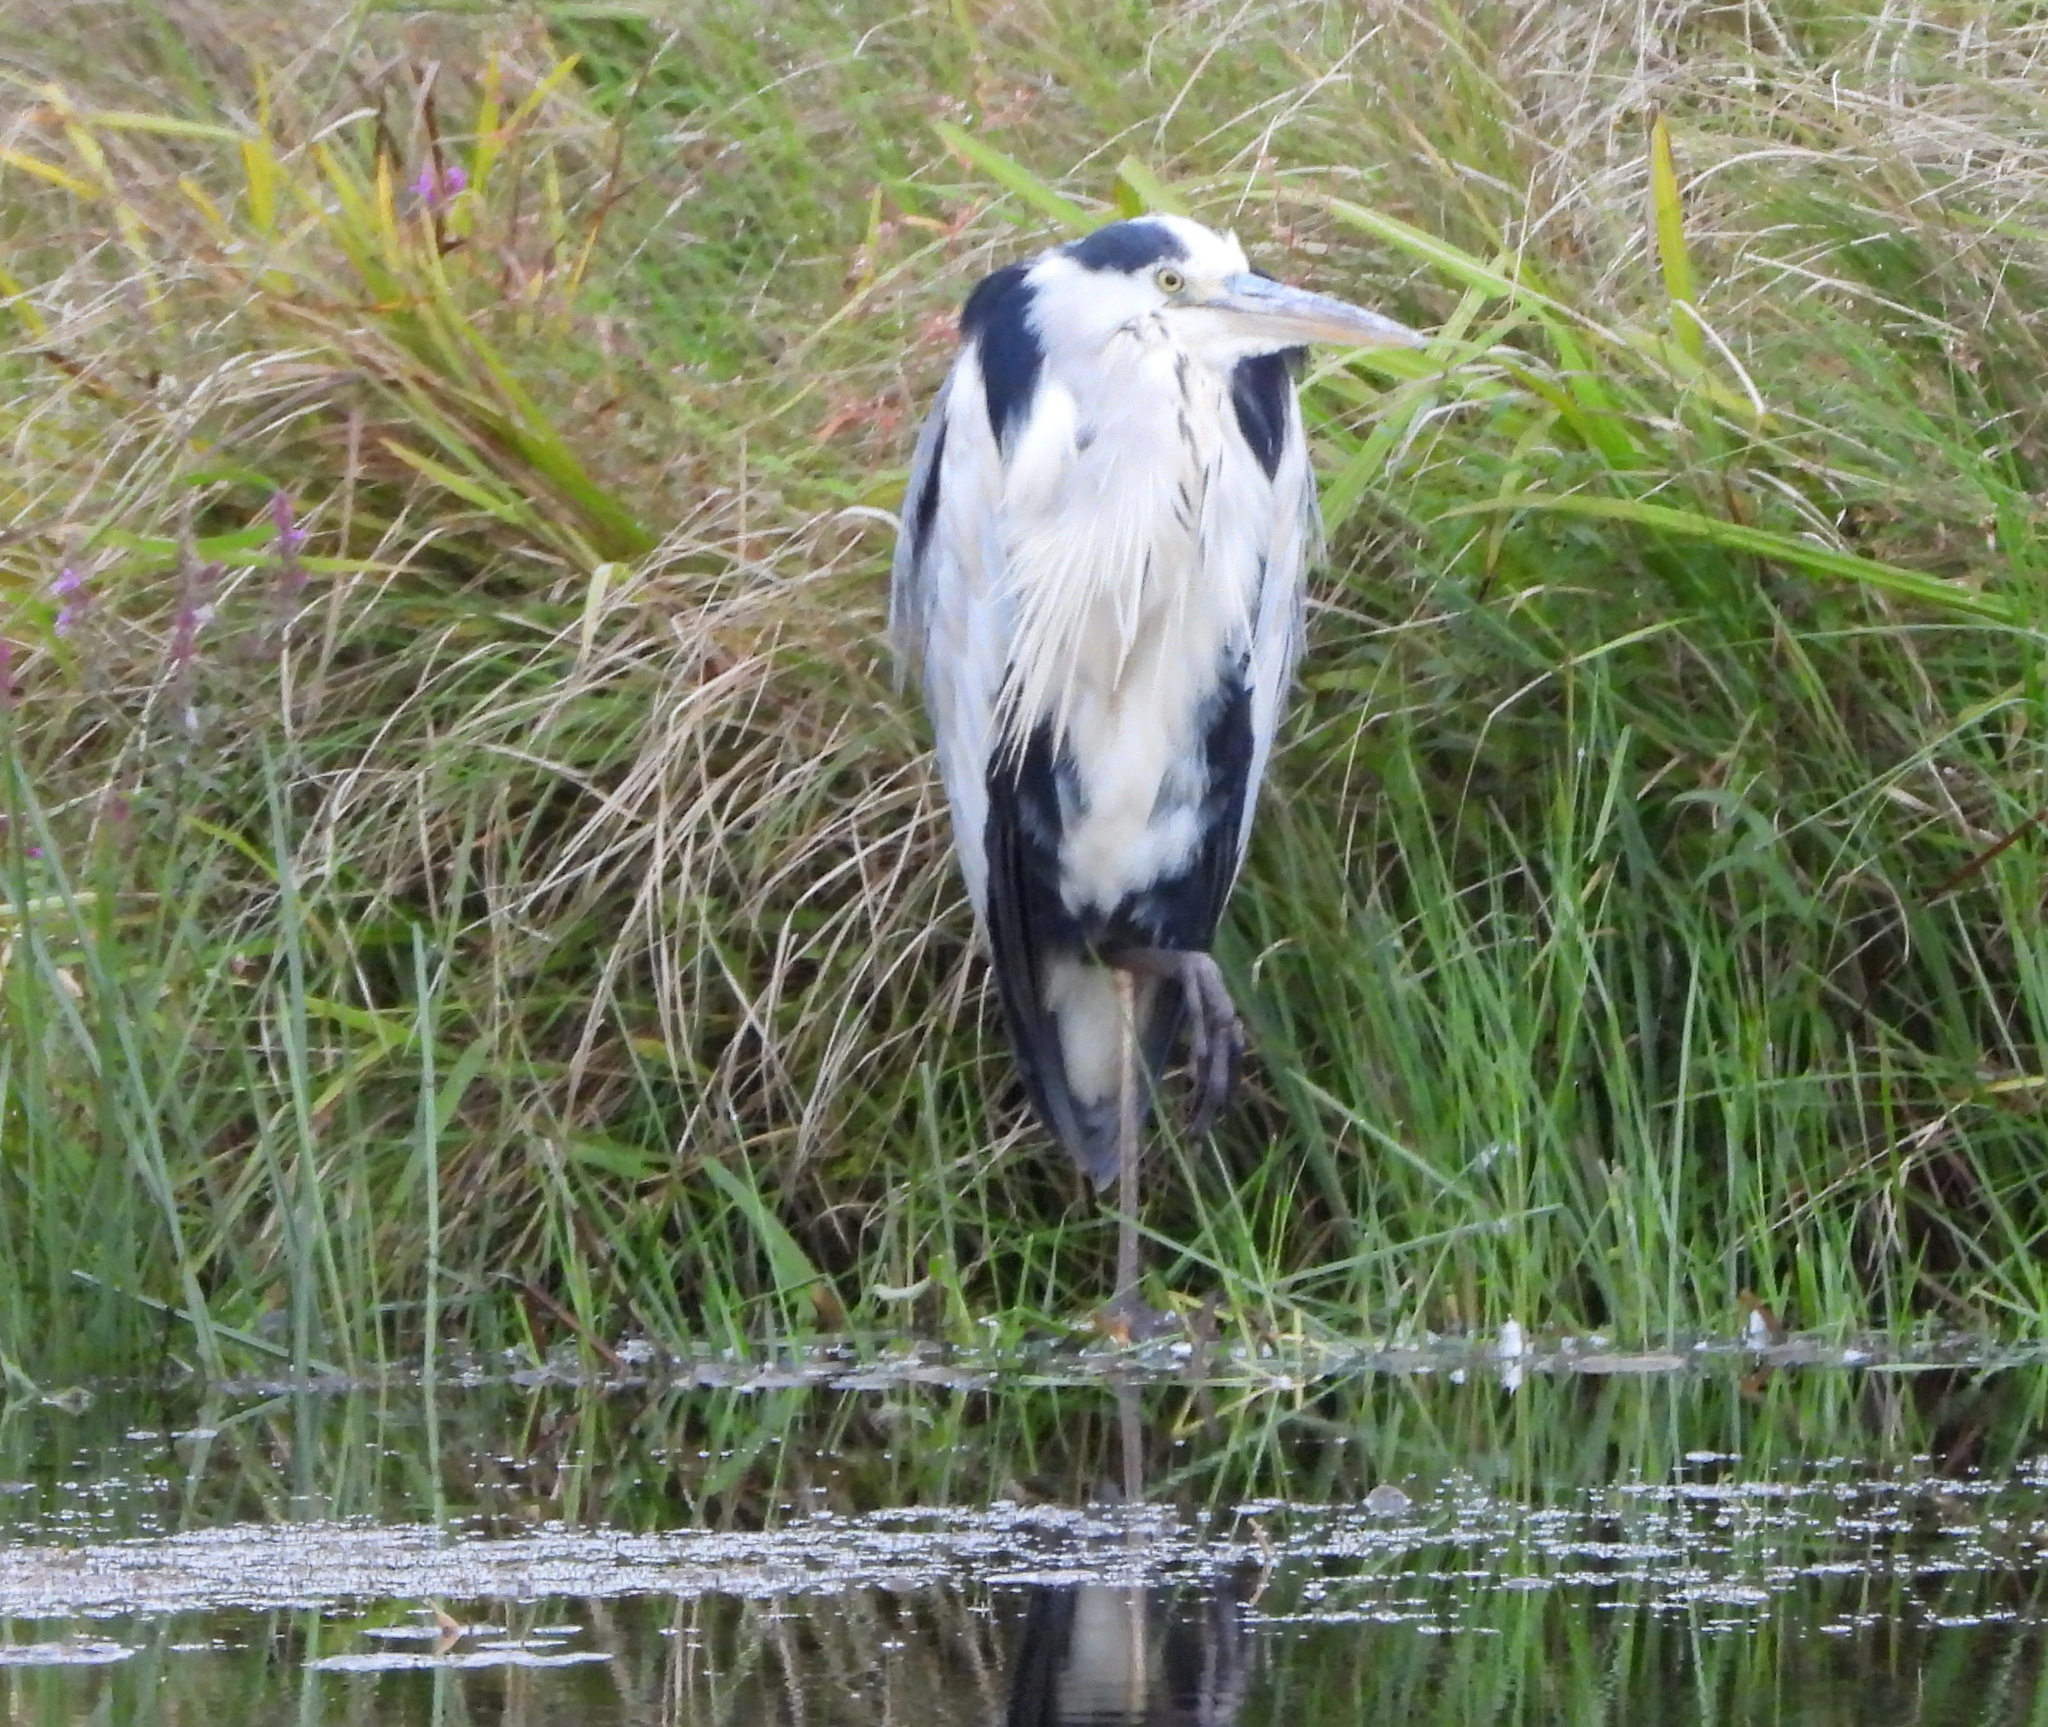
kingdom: Animalia
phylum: Chordata
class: Aves
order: Pelecaniformes
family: Ardeidae
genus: Ardea
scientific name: Ardea cinerea
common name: Grey heron
